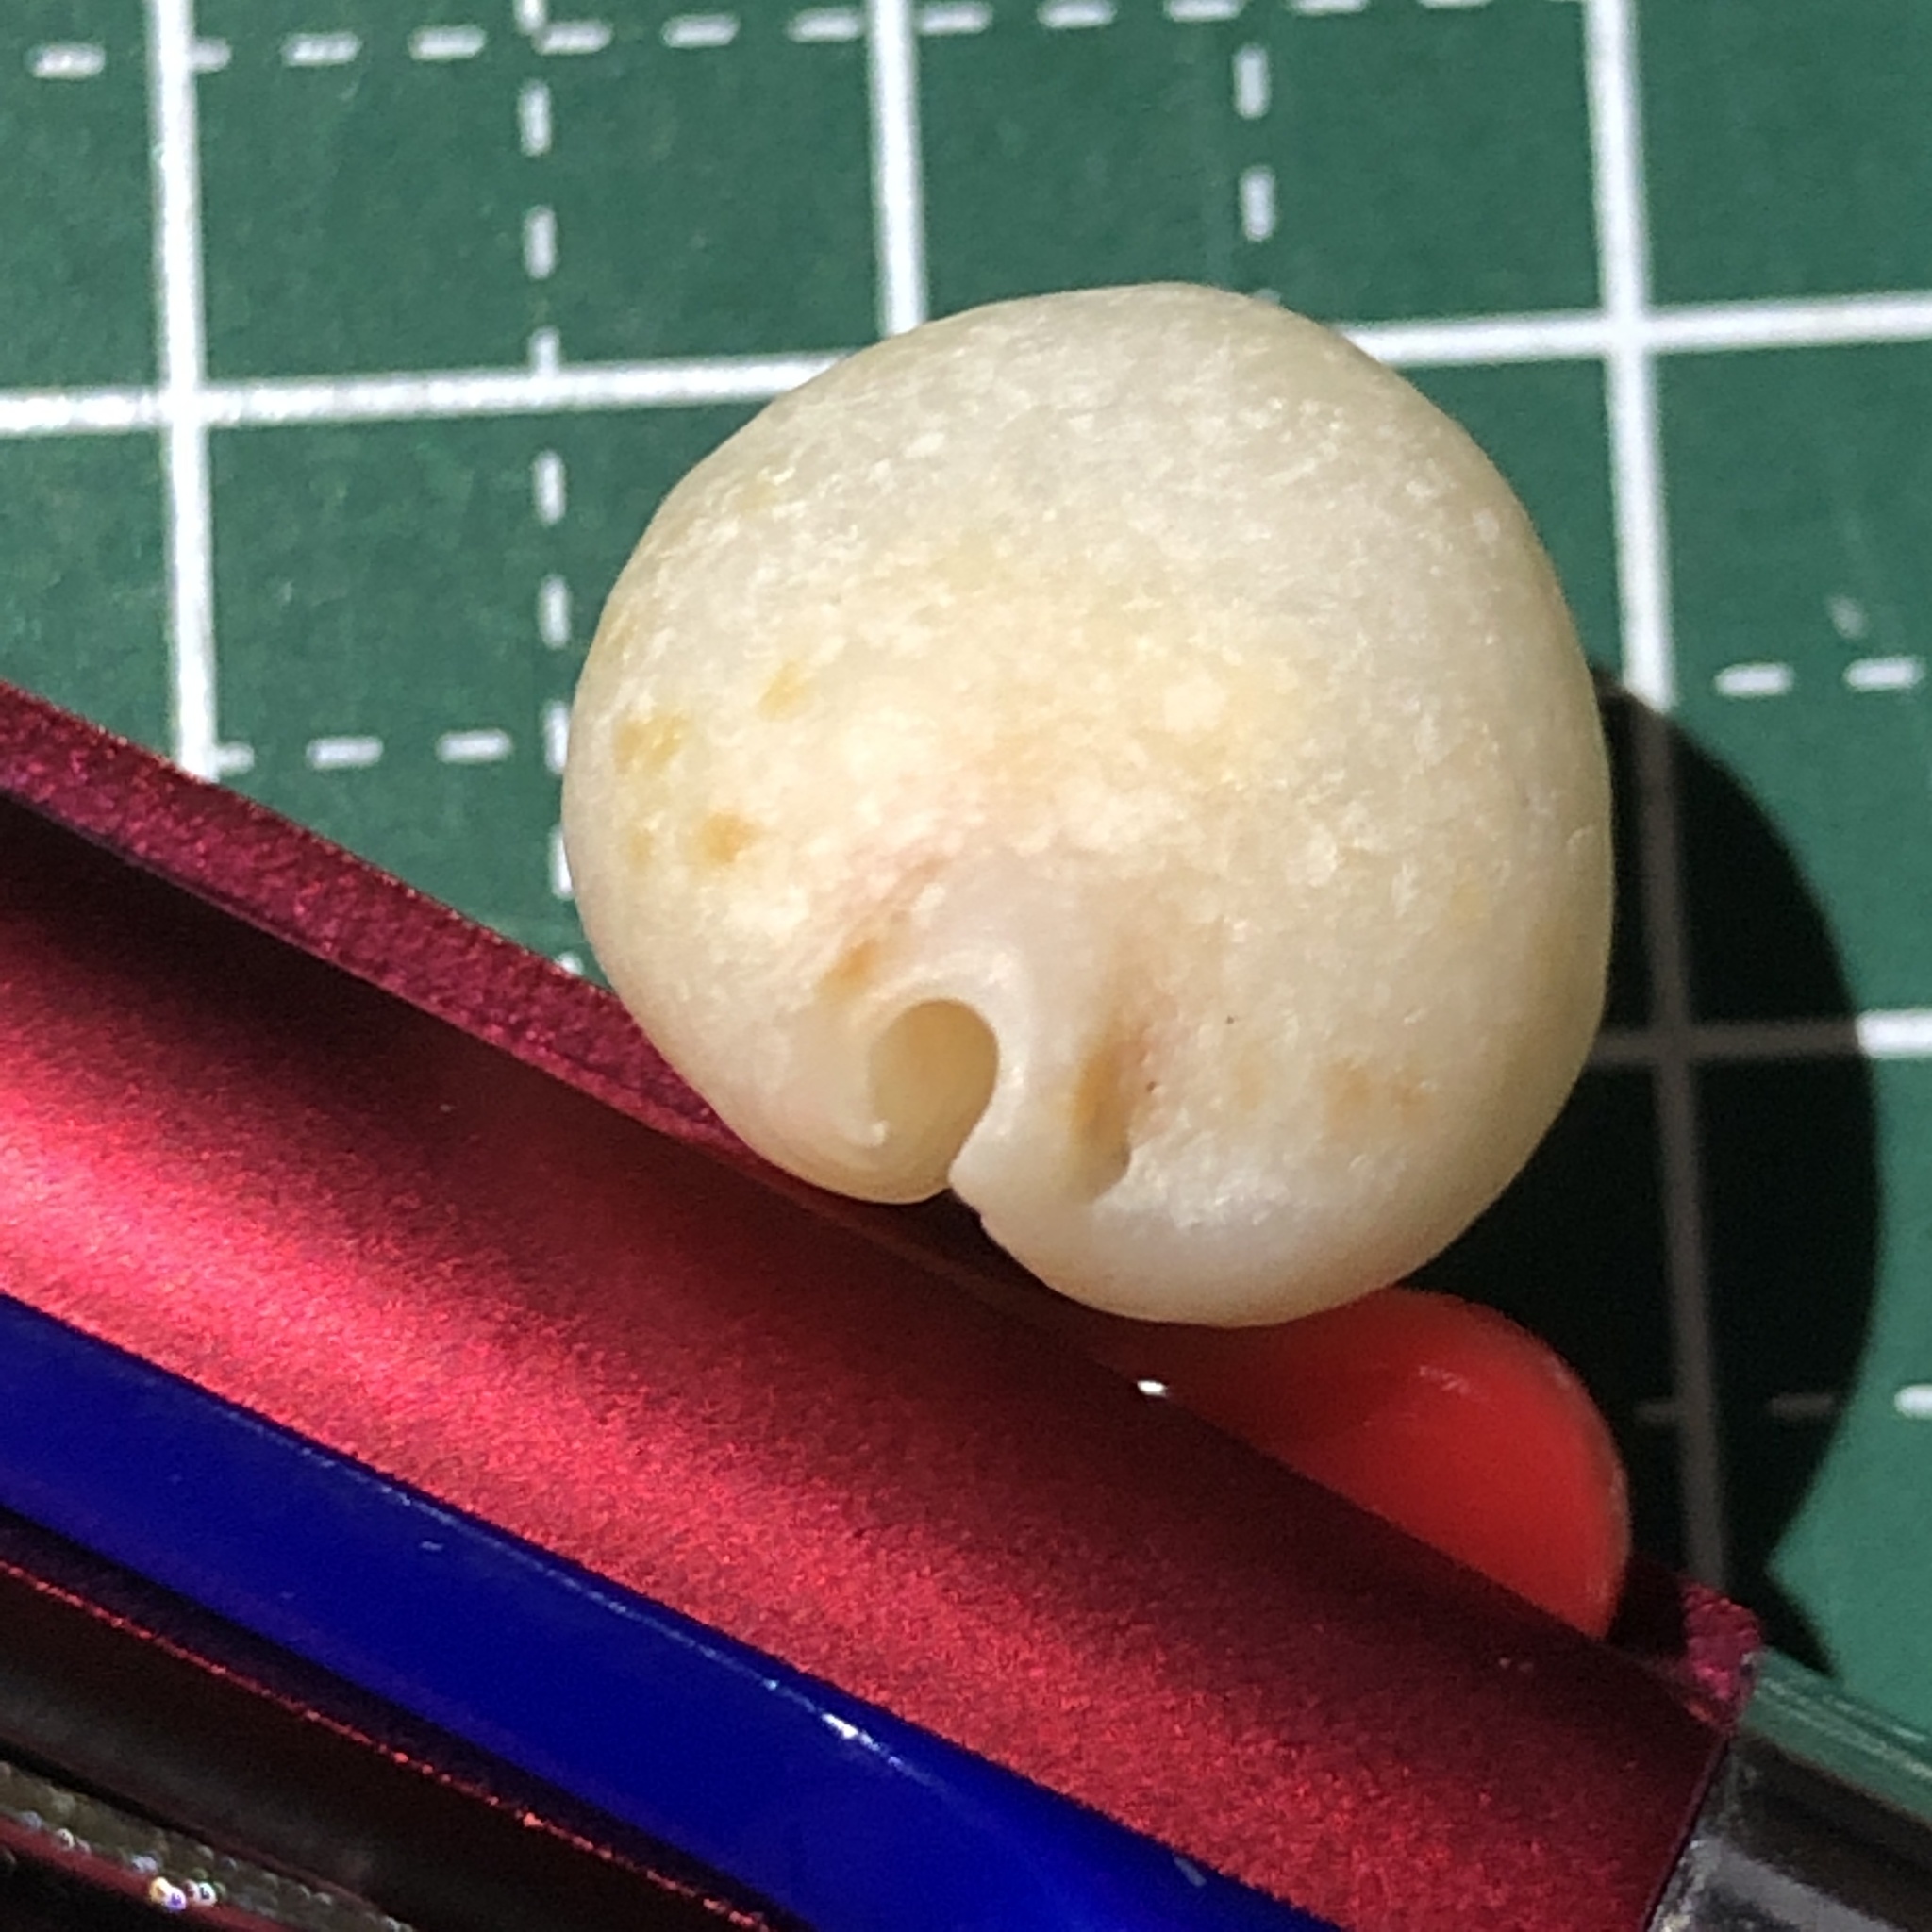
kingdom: Animalia
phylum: Mollusca
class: Gastropoda
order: Littorinimorpha
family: Cypraeidae
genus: Pustularia
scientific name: Pustularia bistrinotata
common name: Treblespotted cowrie
